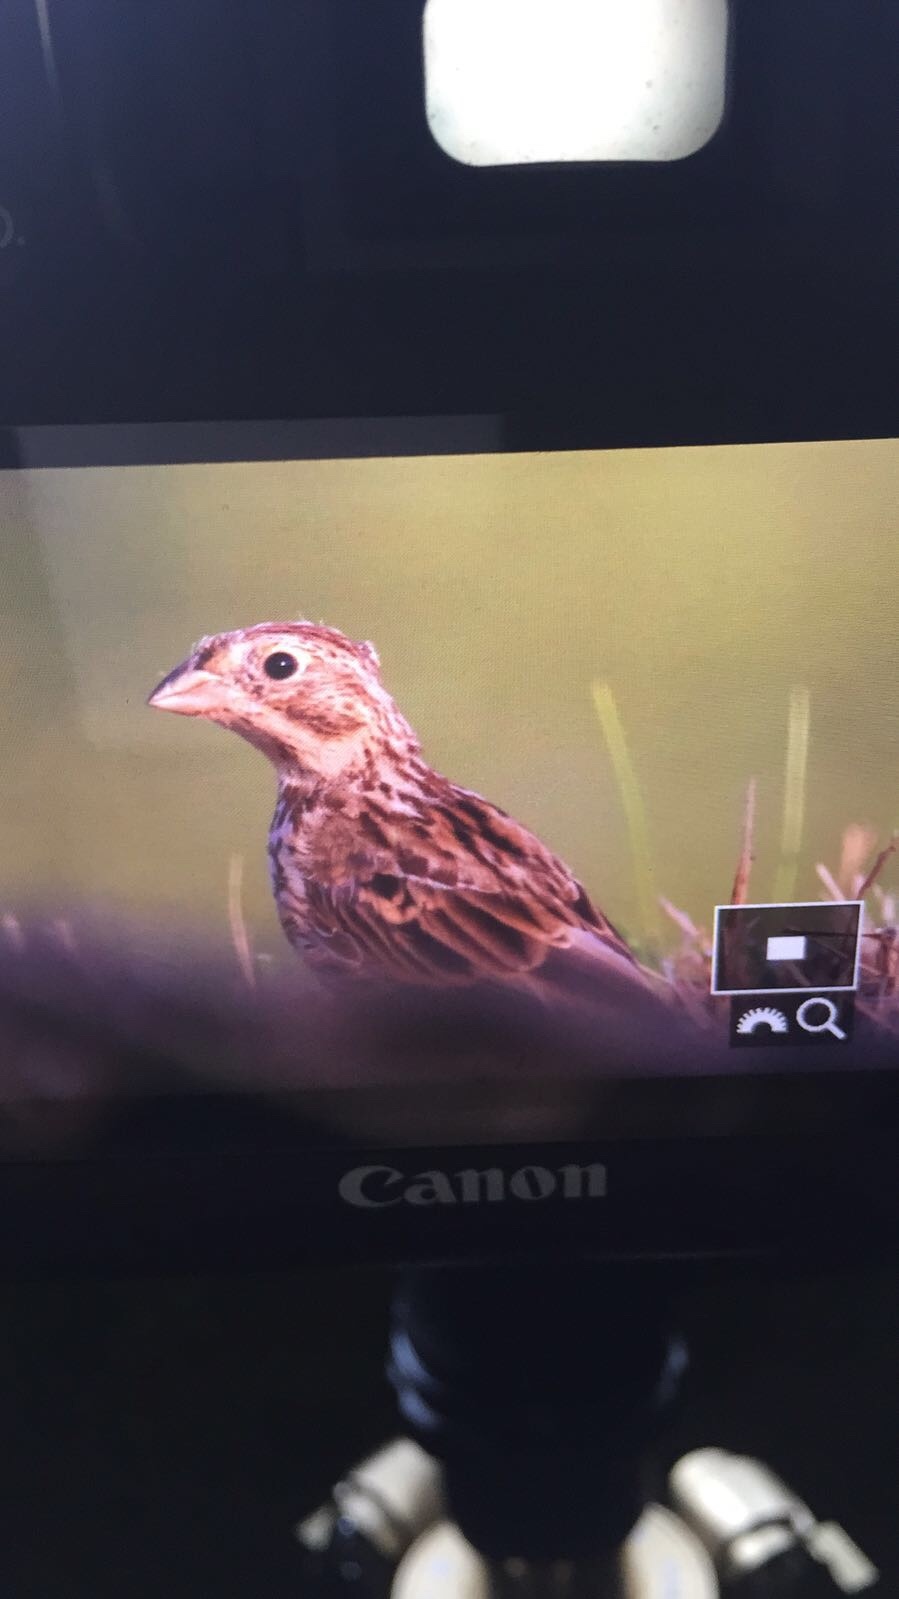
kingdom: Animalia
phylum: Chordata
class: Aves
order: Passeriformes
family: Emberizidae
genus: Emberiza
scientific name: Emberiza calandra
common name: Corn bunting
